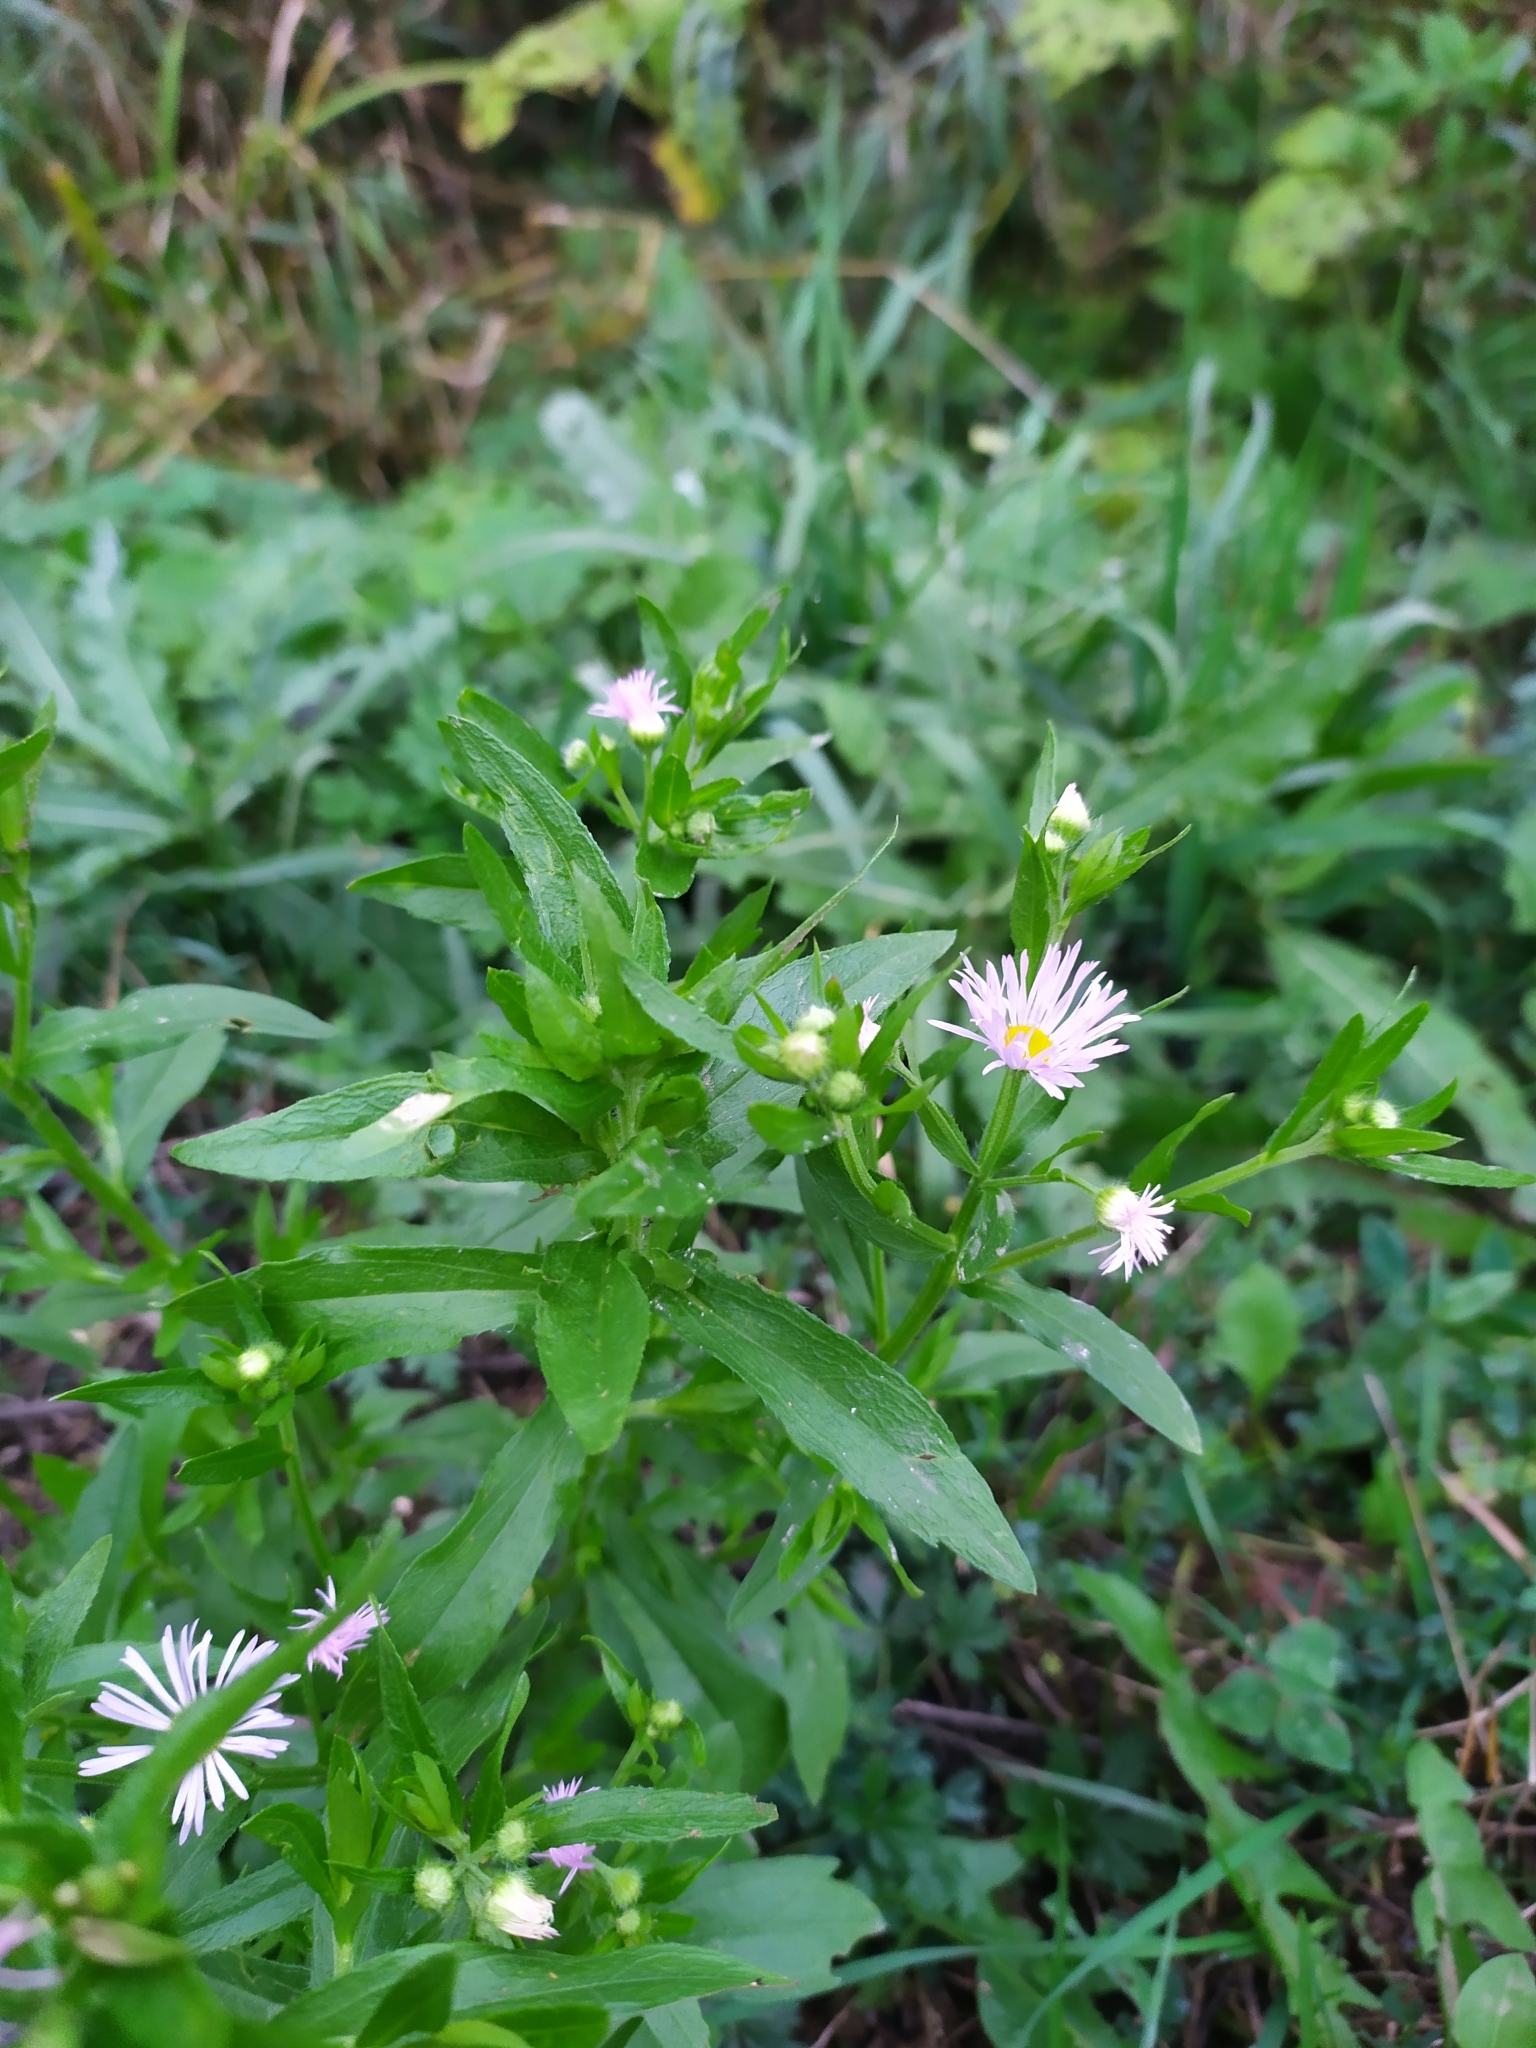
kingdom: Plantae
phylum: Tracheophyta
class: Magnoliopsida
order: Asterales
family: Asteraceae
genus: Erigeron
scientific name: Erigeron annuus
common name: Tall fleabane
